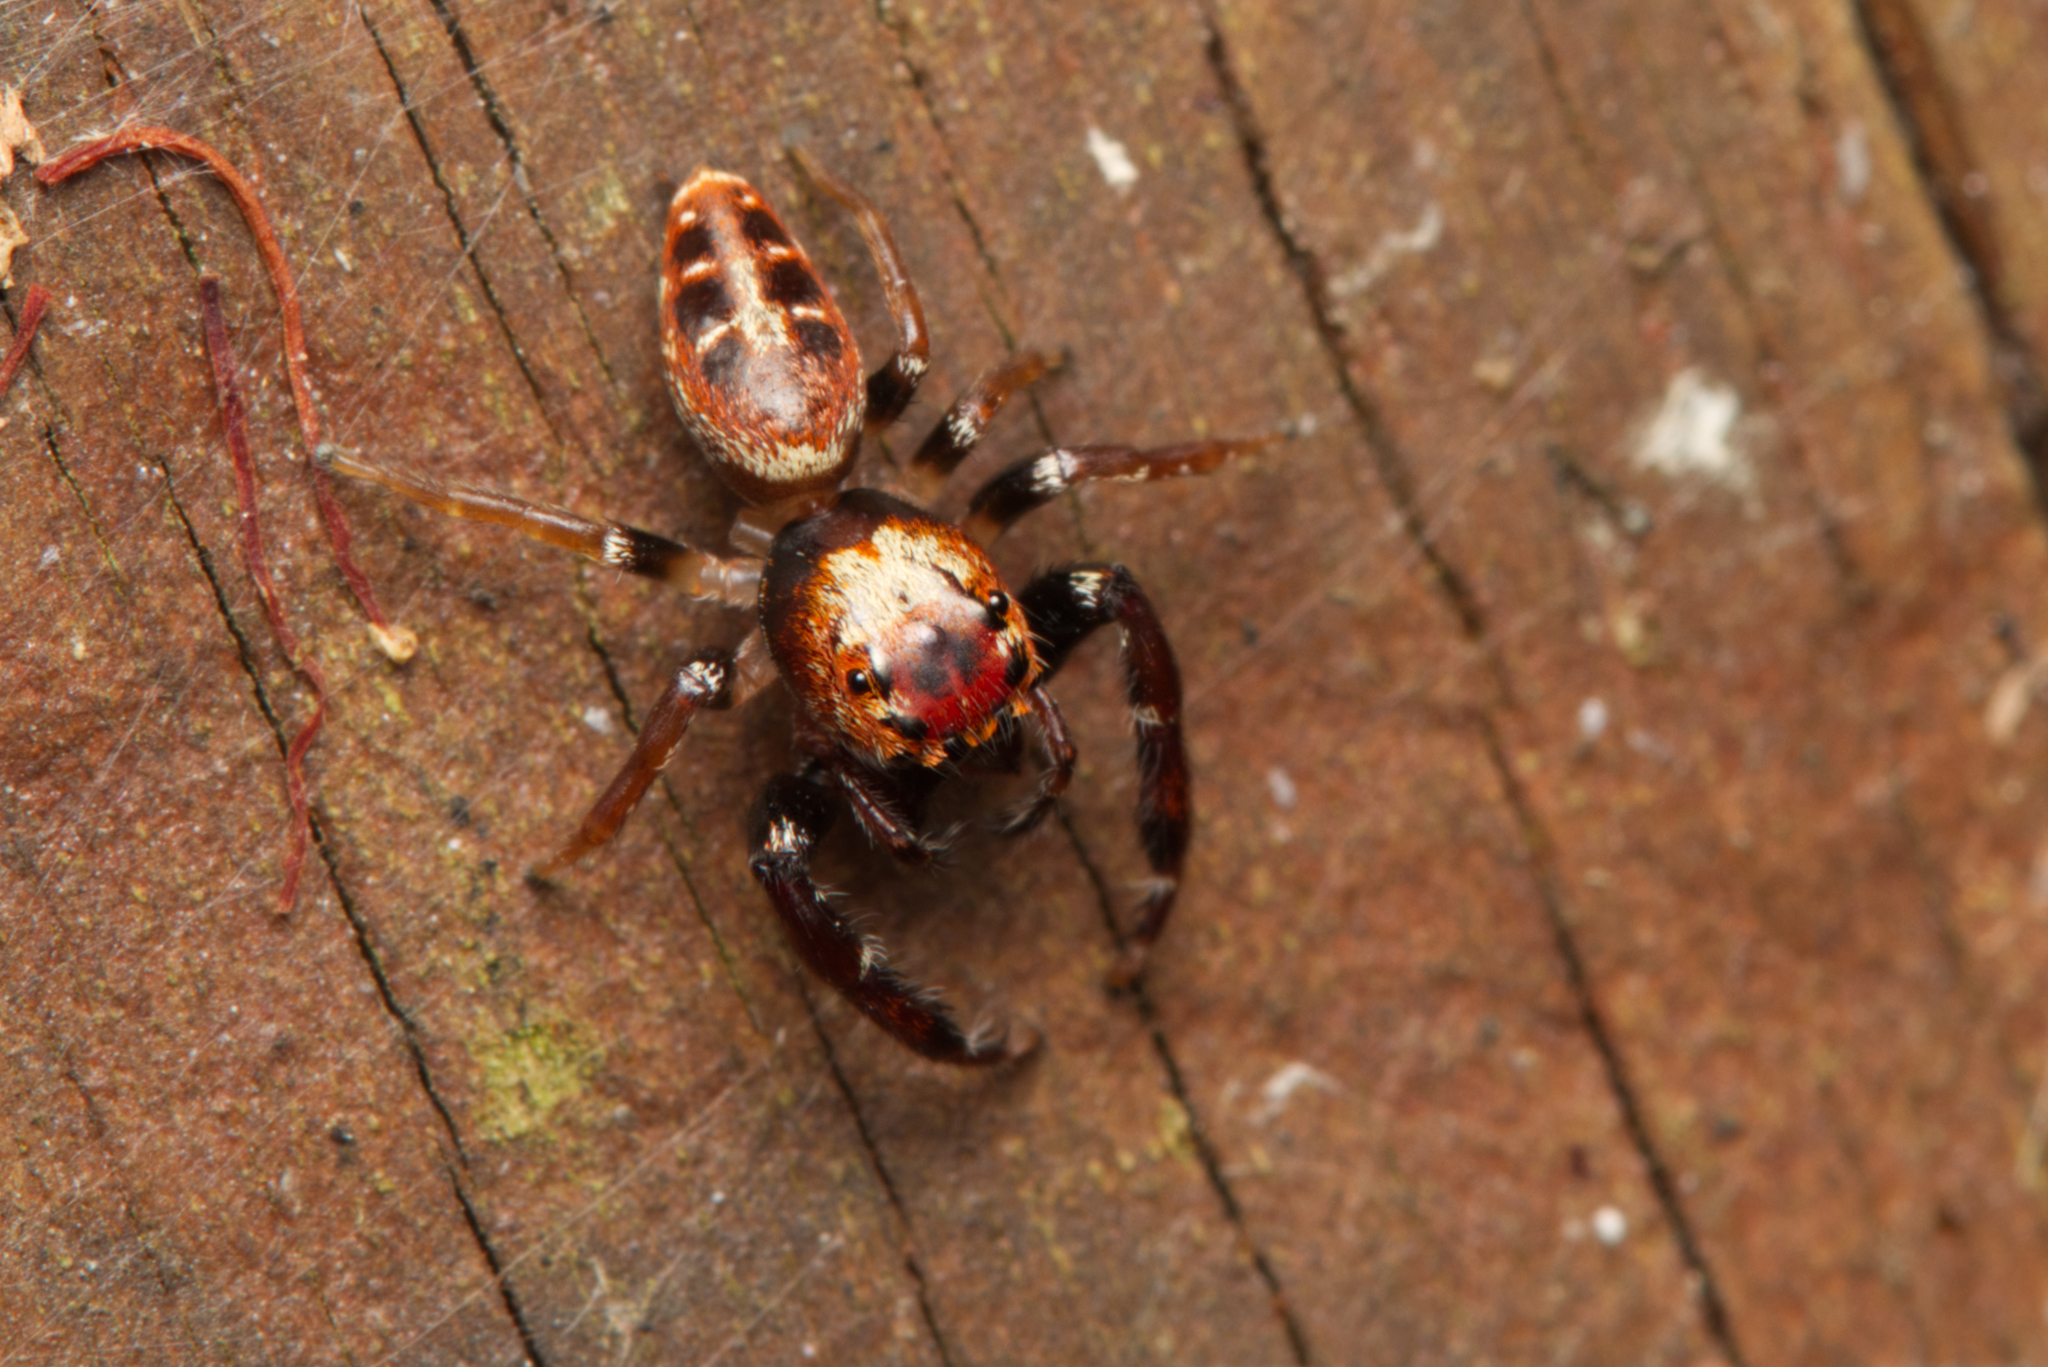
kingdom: Animalia
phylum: Arthropoda
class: Arachnida
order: Araneae
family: Salticidae
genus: Opisthoncus
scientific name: Opisthoncus sexmaculatus
